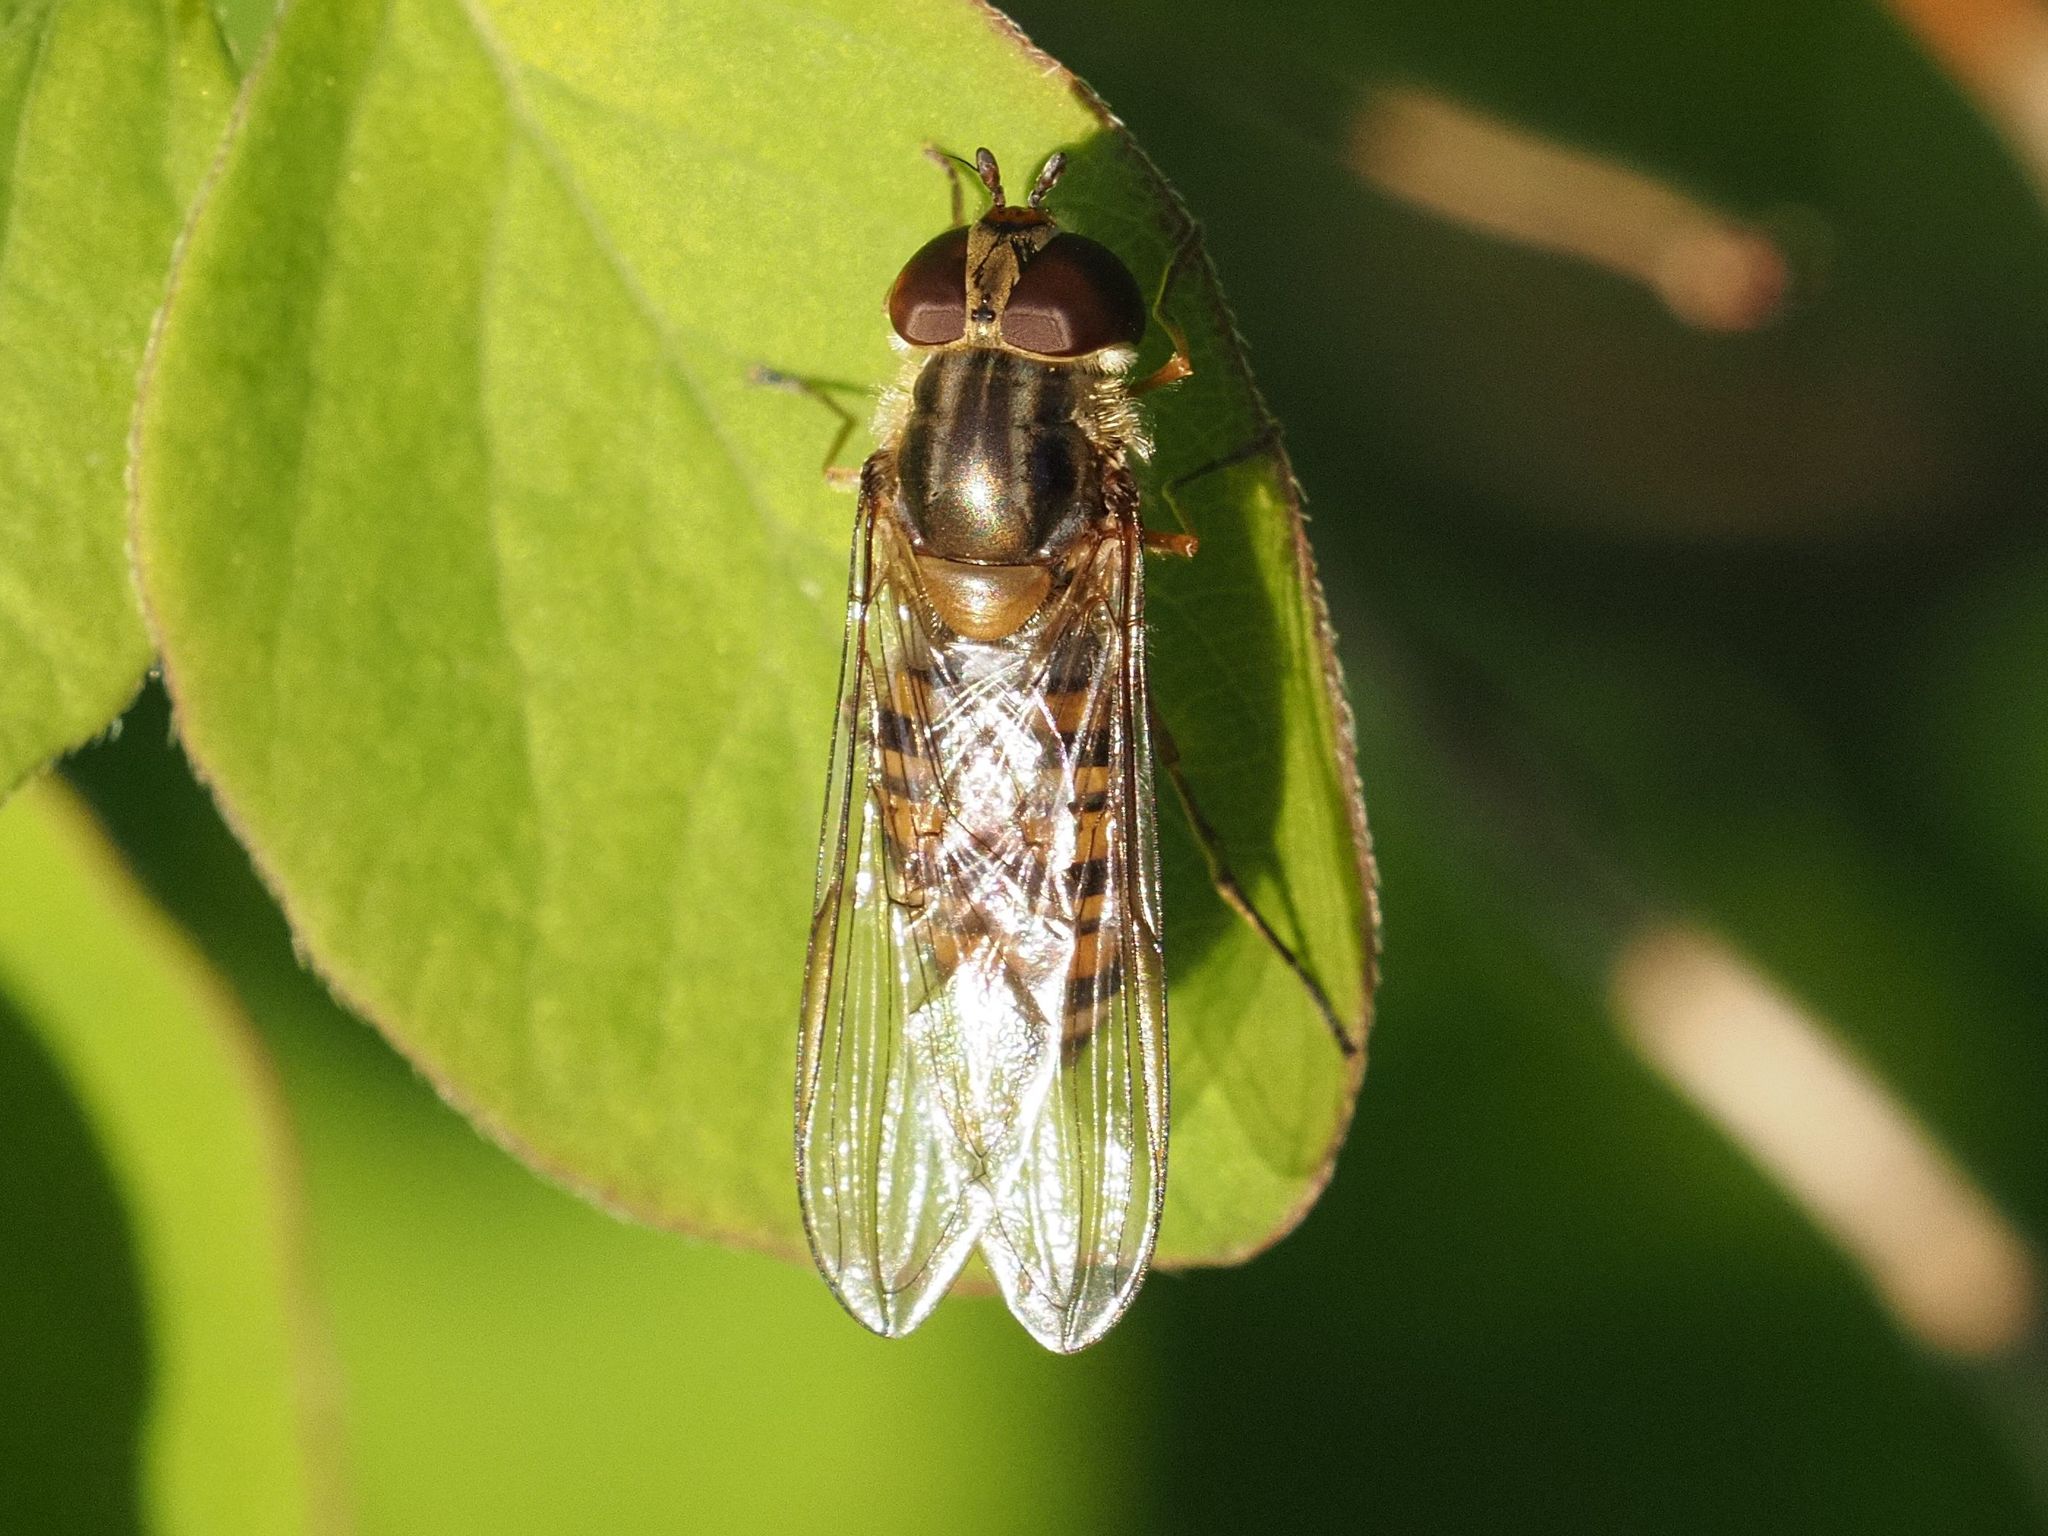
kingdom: Animalia
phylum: Arthropoda
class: Insecta
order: Diptera
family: Syrphidae
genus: Episyrphus
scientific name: Episyrphus balteatus
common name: Marmalade hoverfly
